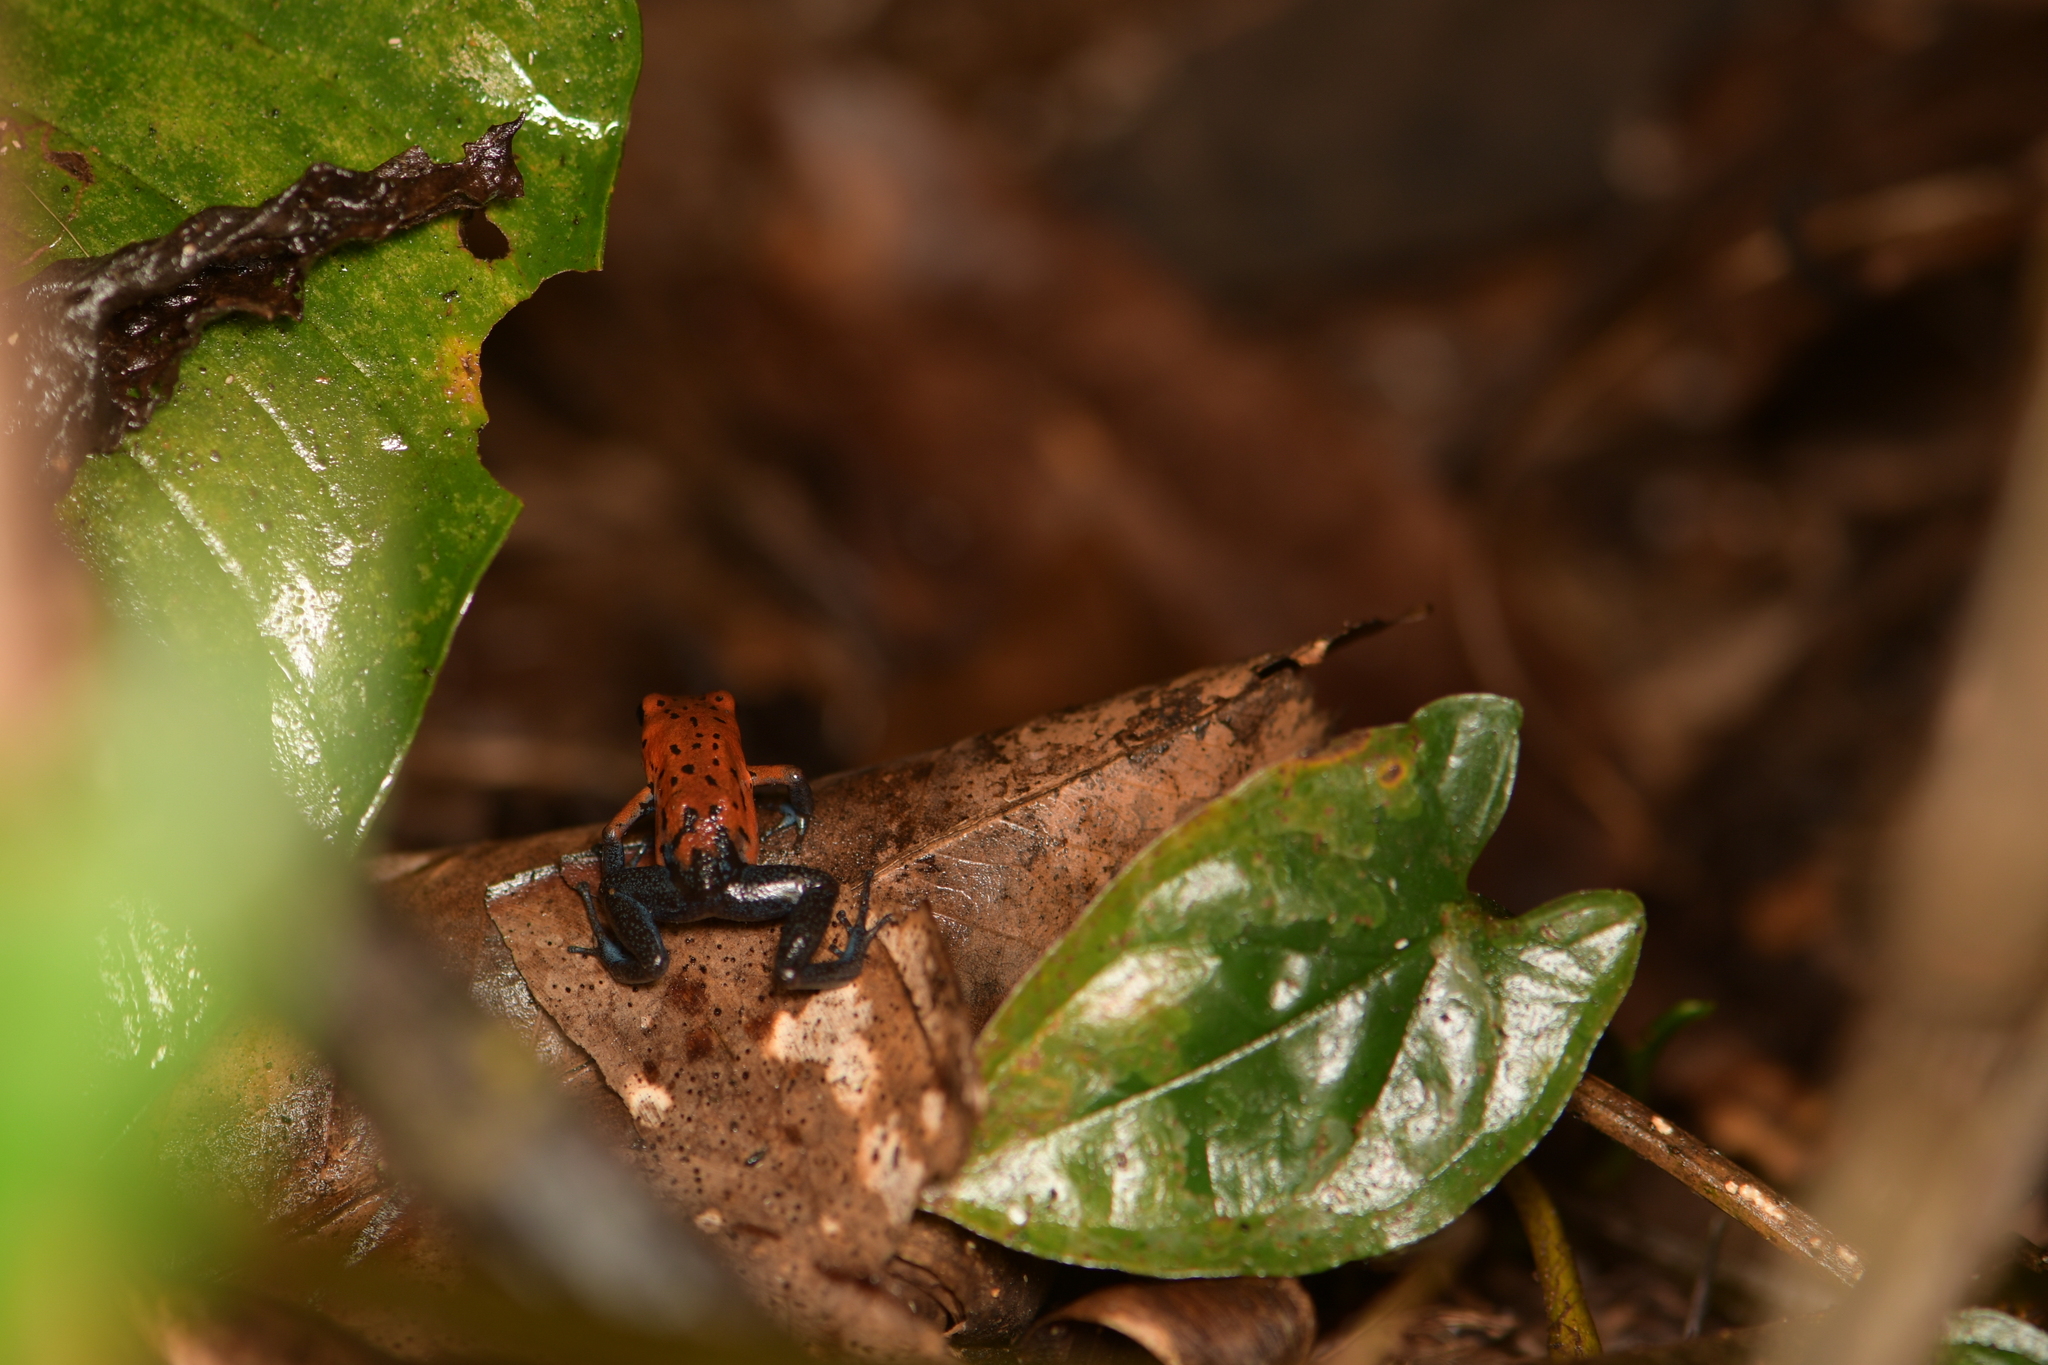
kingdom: Animalia
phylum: Chordata
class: Amphibia
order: Anura
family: Dendrobatidae
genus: Oophaga
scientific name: Oophaga pumilio
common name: Flaming poison frog
